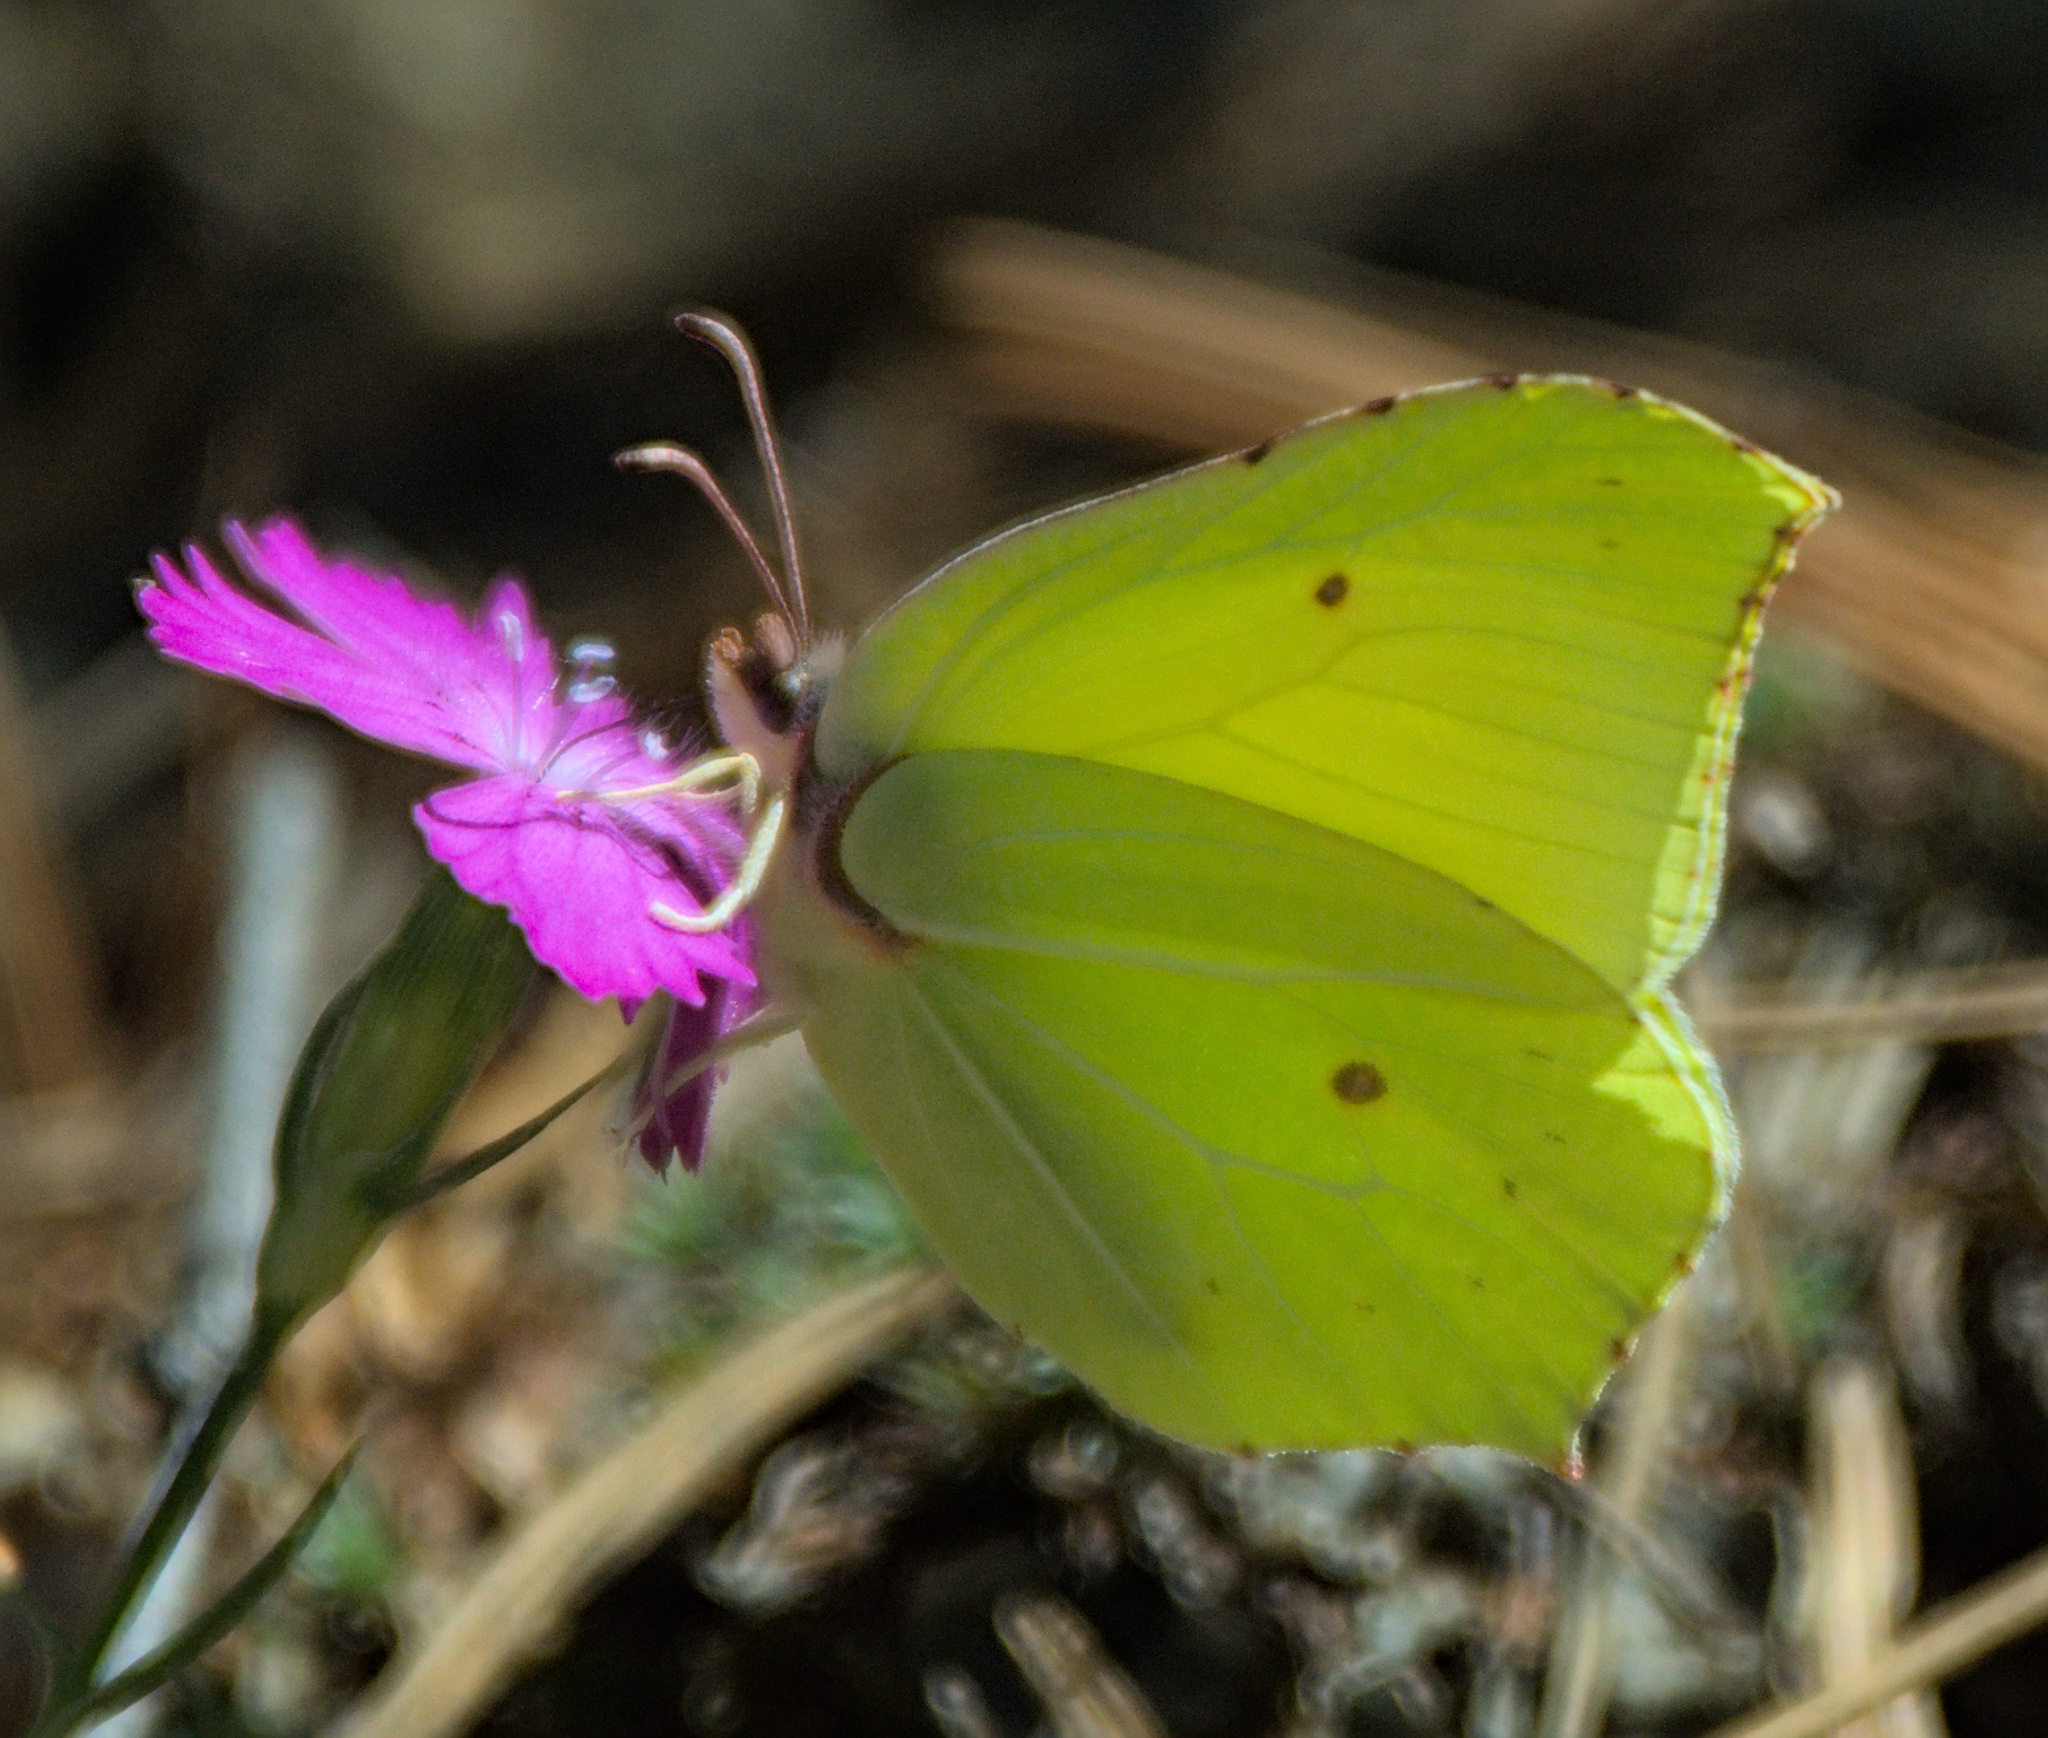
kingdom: Animalia
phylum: Arthropoda
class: Insecta
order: Lepidoptera
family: Pieridae
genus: Gonepteryx
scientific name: Gonepteryx rhamni
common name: Brimstone
